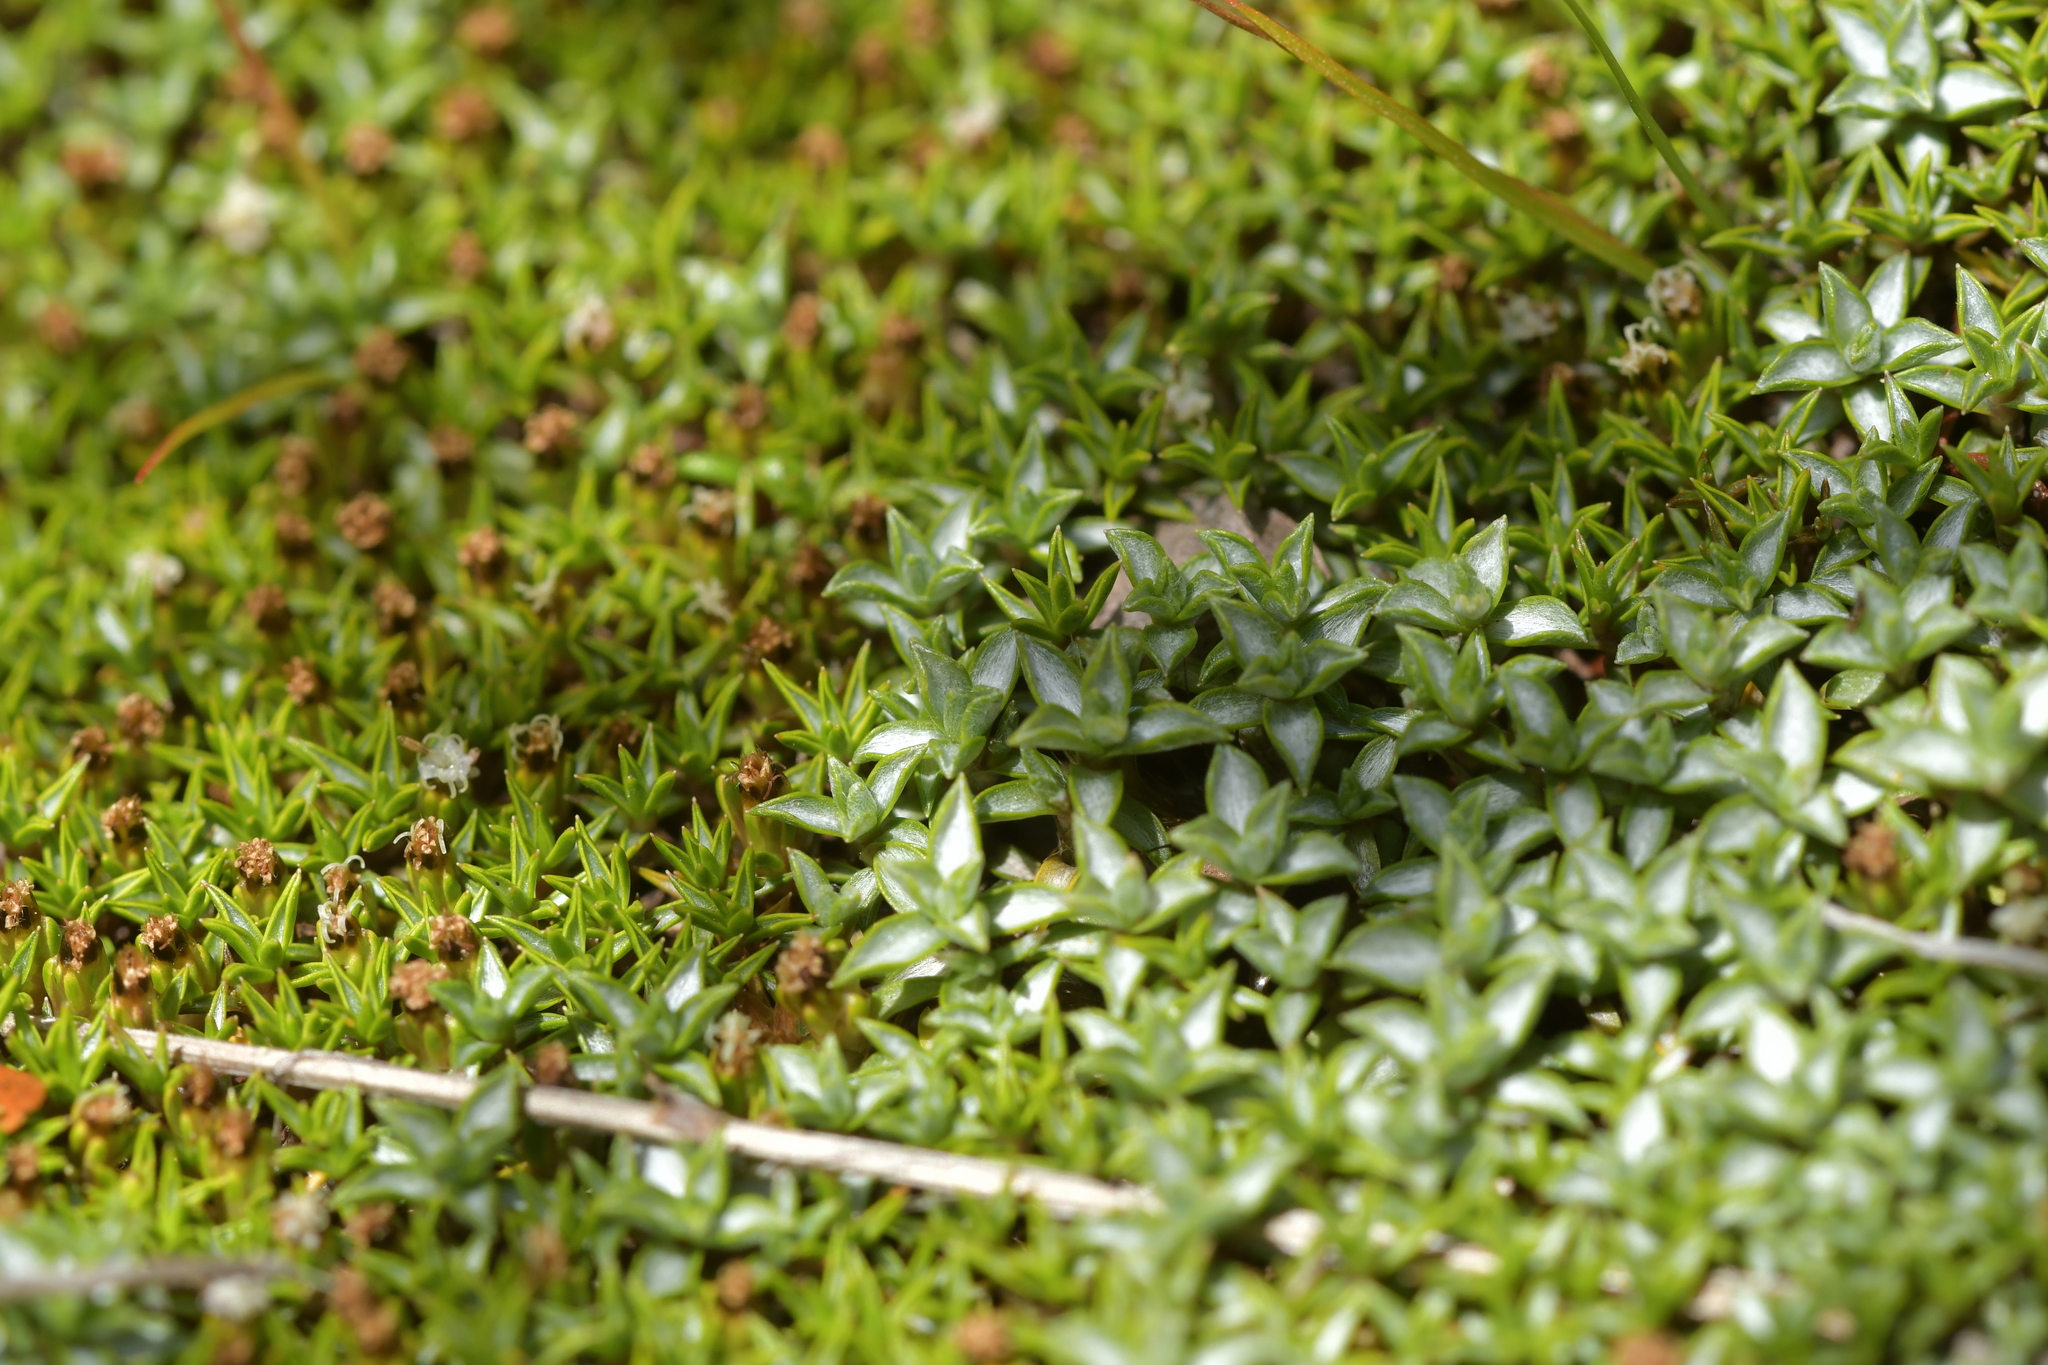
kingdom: Plantae
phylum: Tracheophyta
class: Magnoliopsida
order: Asterales
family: Asteraceae
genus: Raoulia
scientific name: Raoulia tenuicaulis
